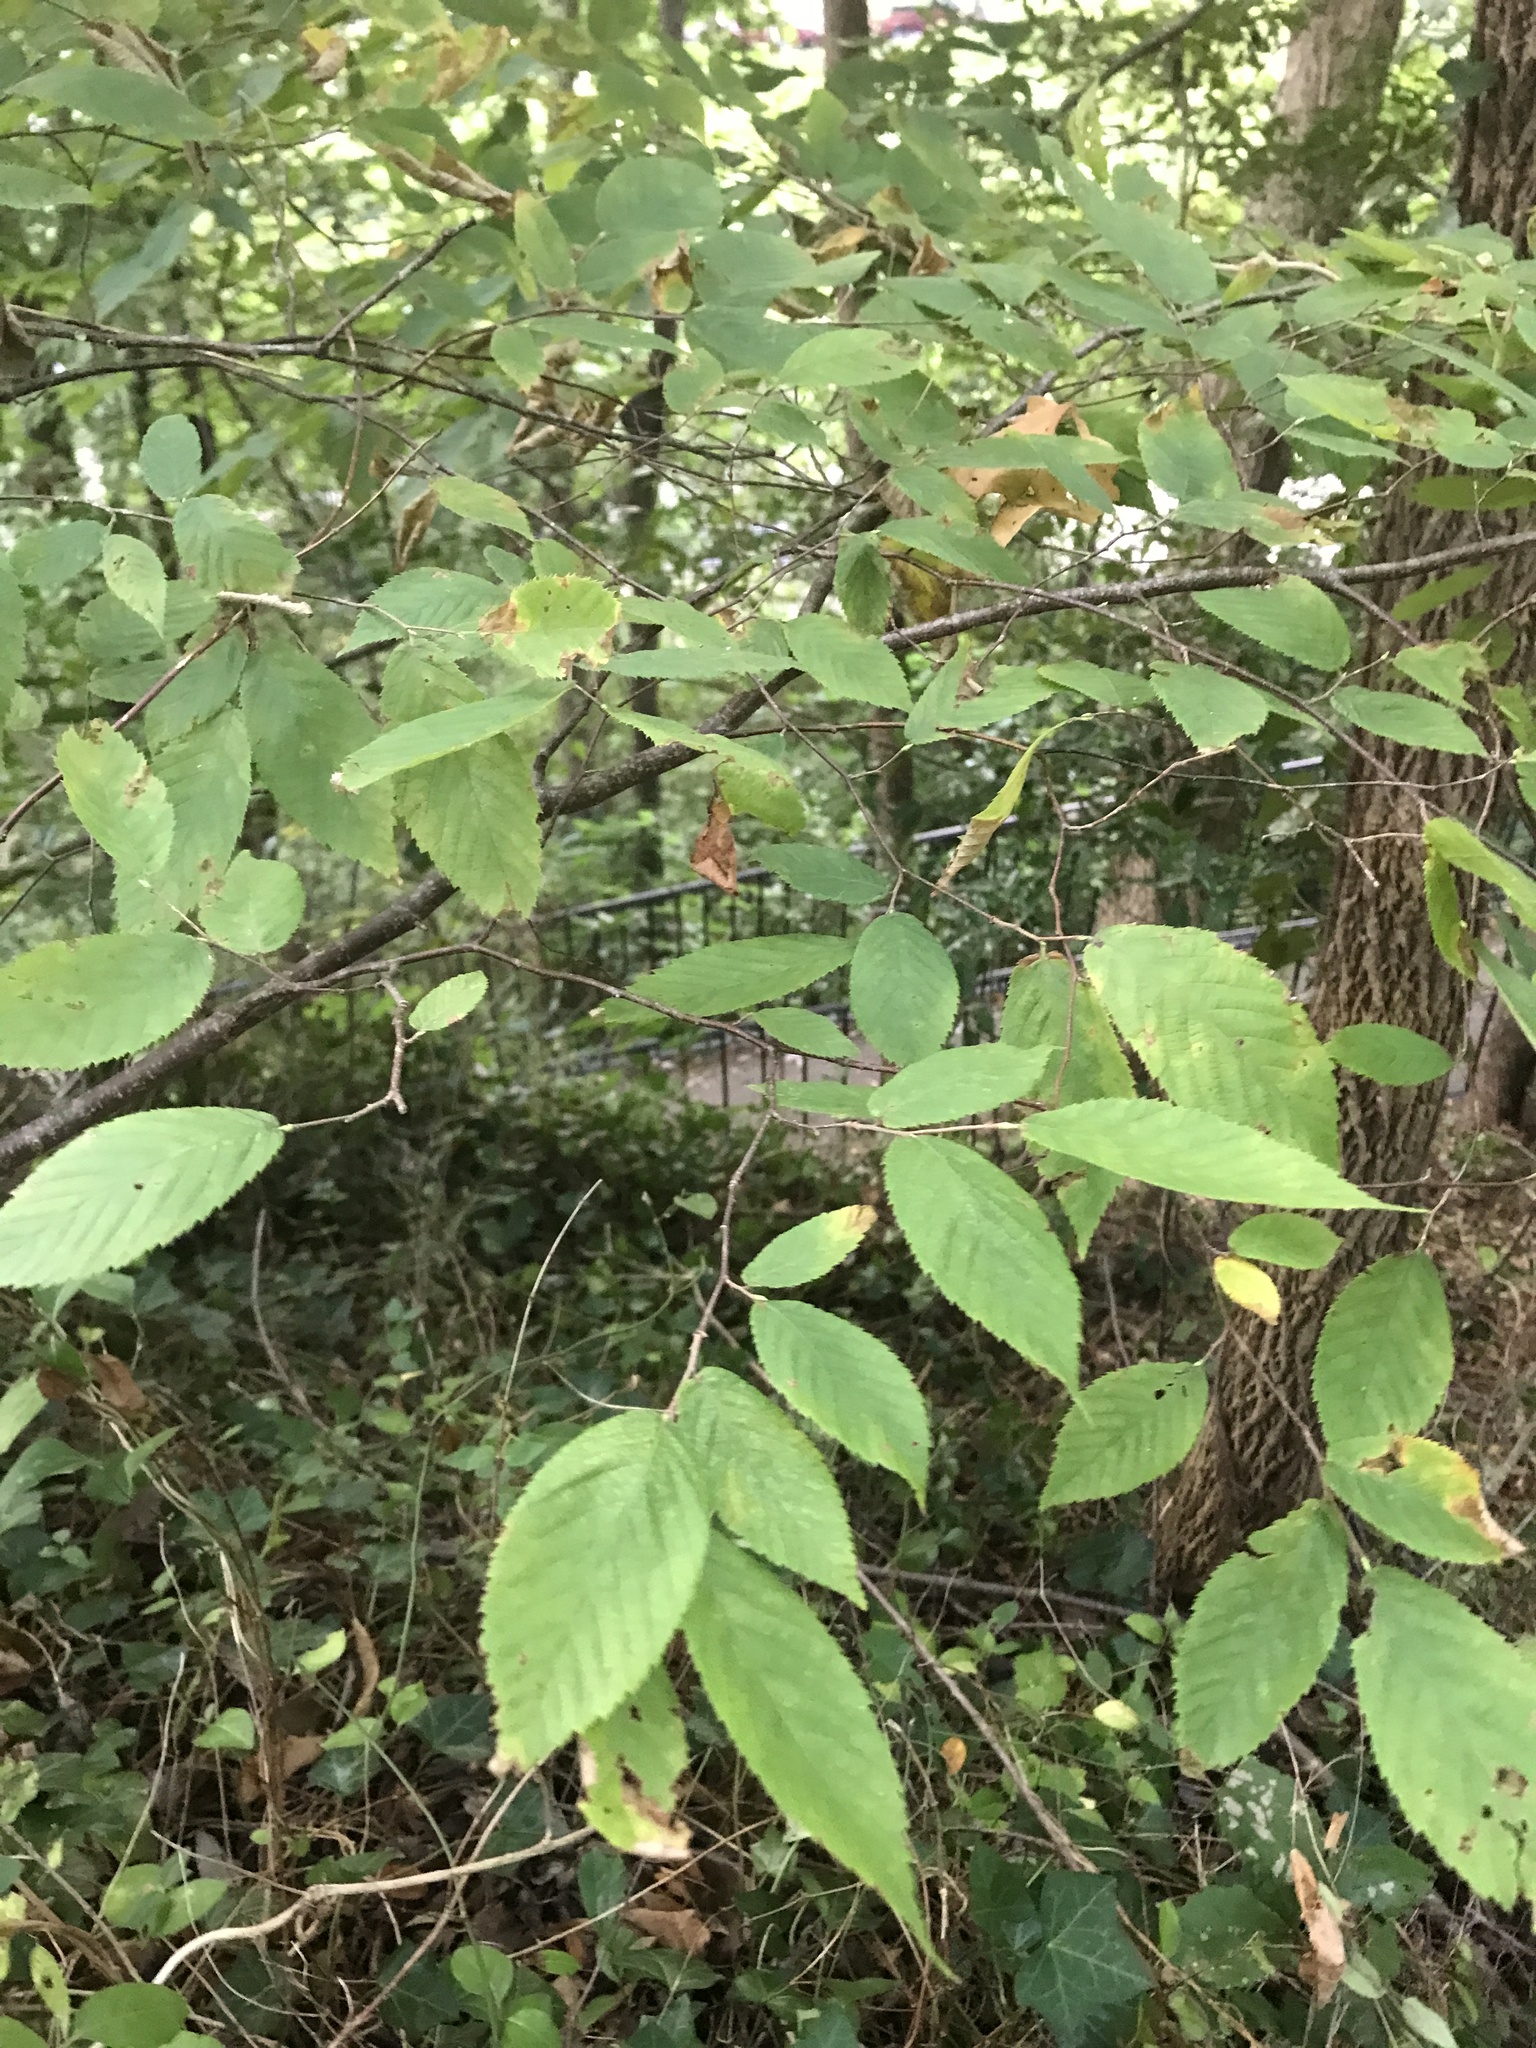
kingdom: Plantae
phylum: Tracheophyta
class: Magnoliopsida
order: Fagales
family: Betulaceae
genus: Ostrya
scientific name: Ostrya virginiana
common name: Ironwood
